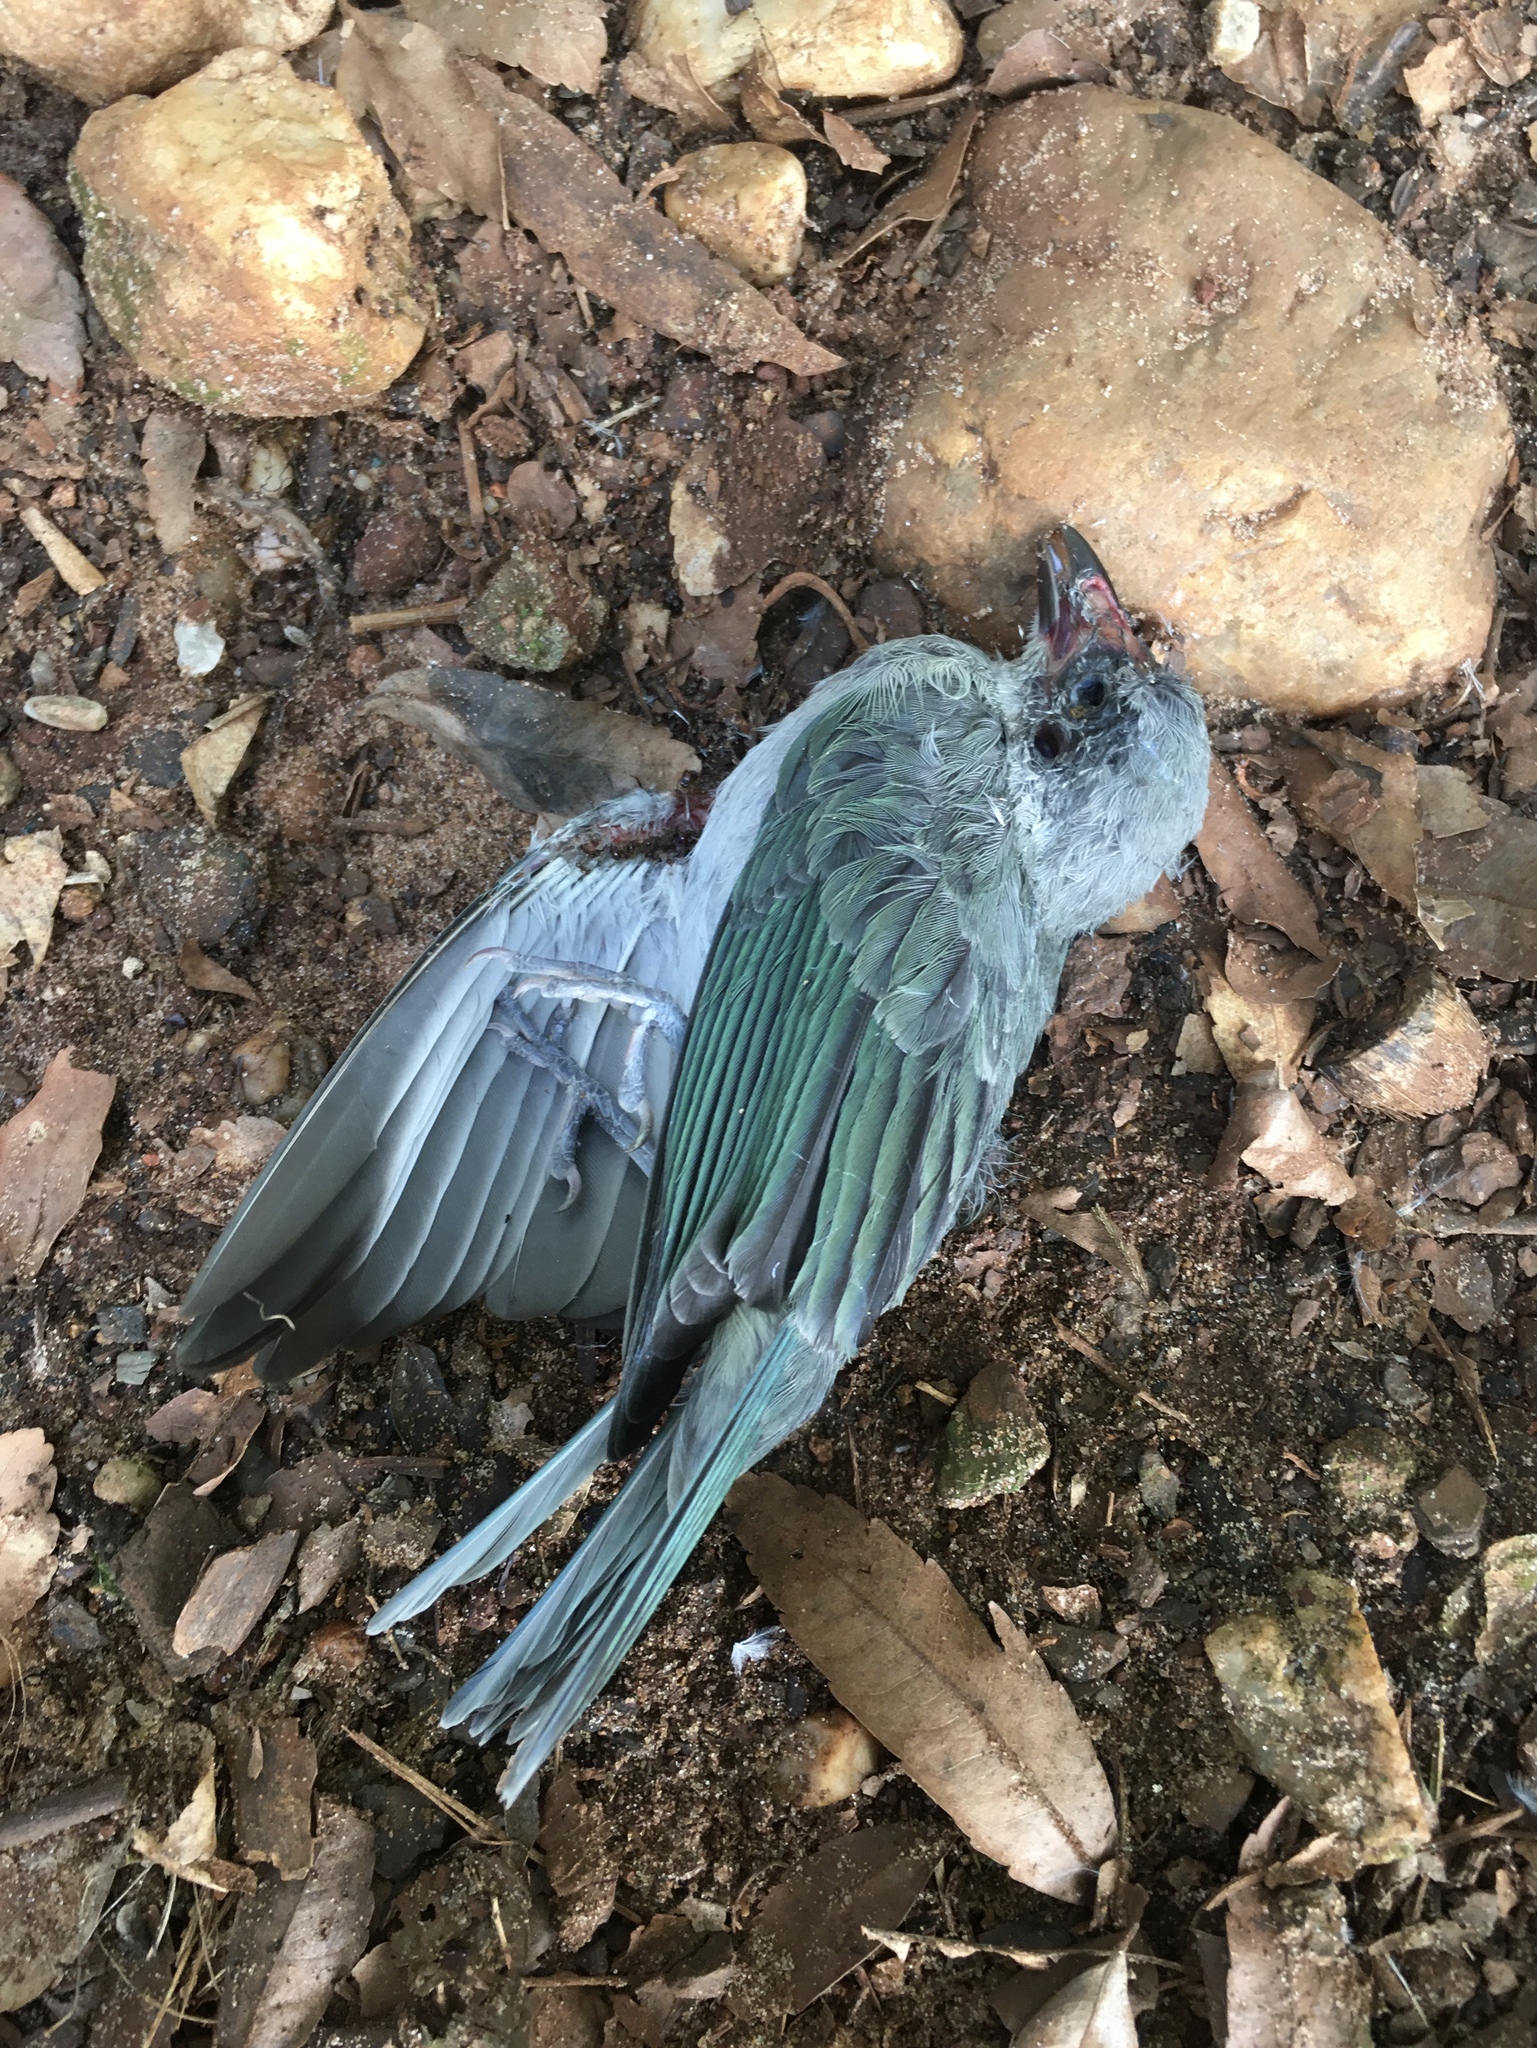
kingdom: Animalia
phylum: Chordata
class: Aves
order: Passeriformes
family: Thraupidae
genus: Thraupis
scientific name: Thraupis sayaca
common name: Sayaca tanager
